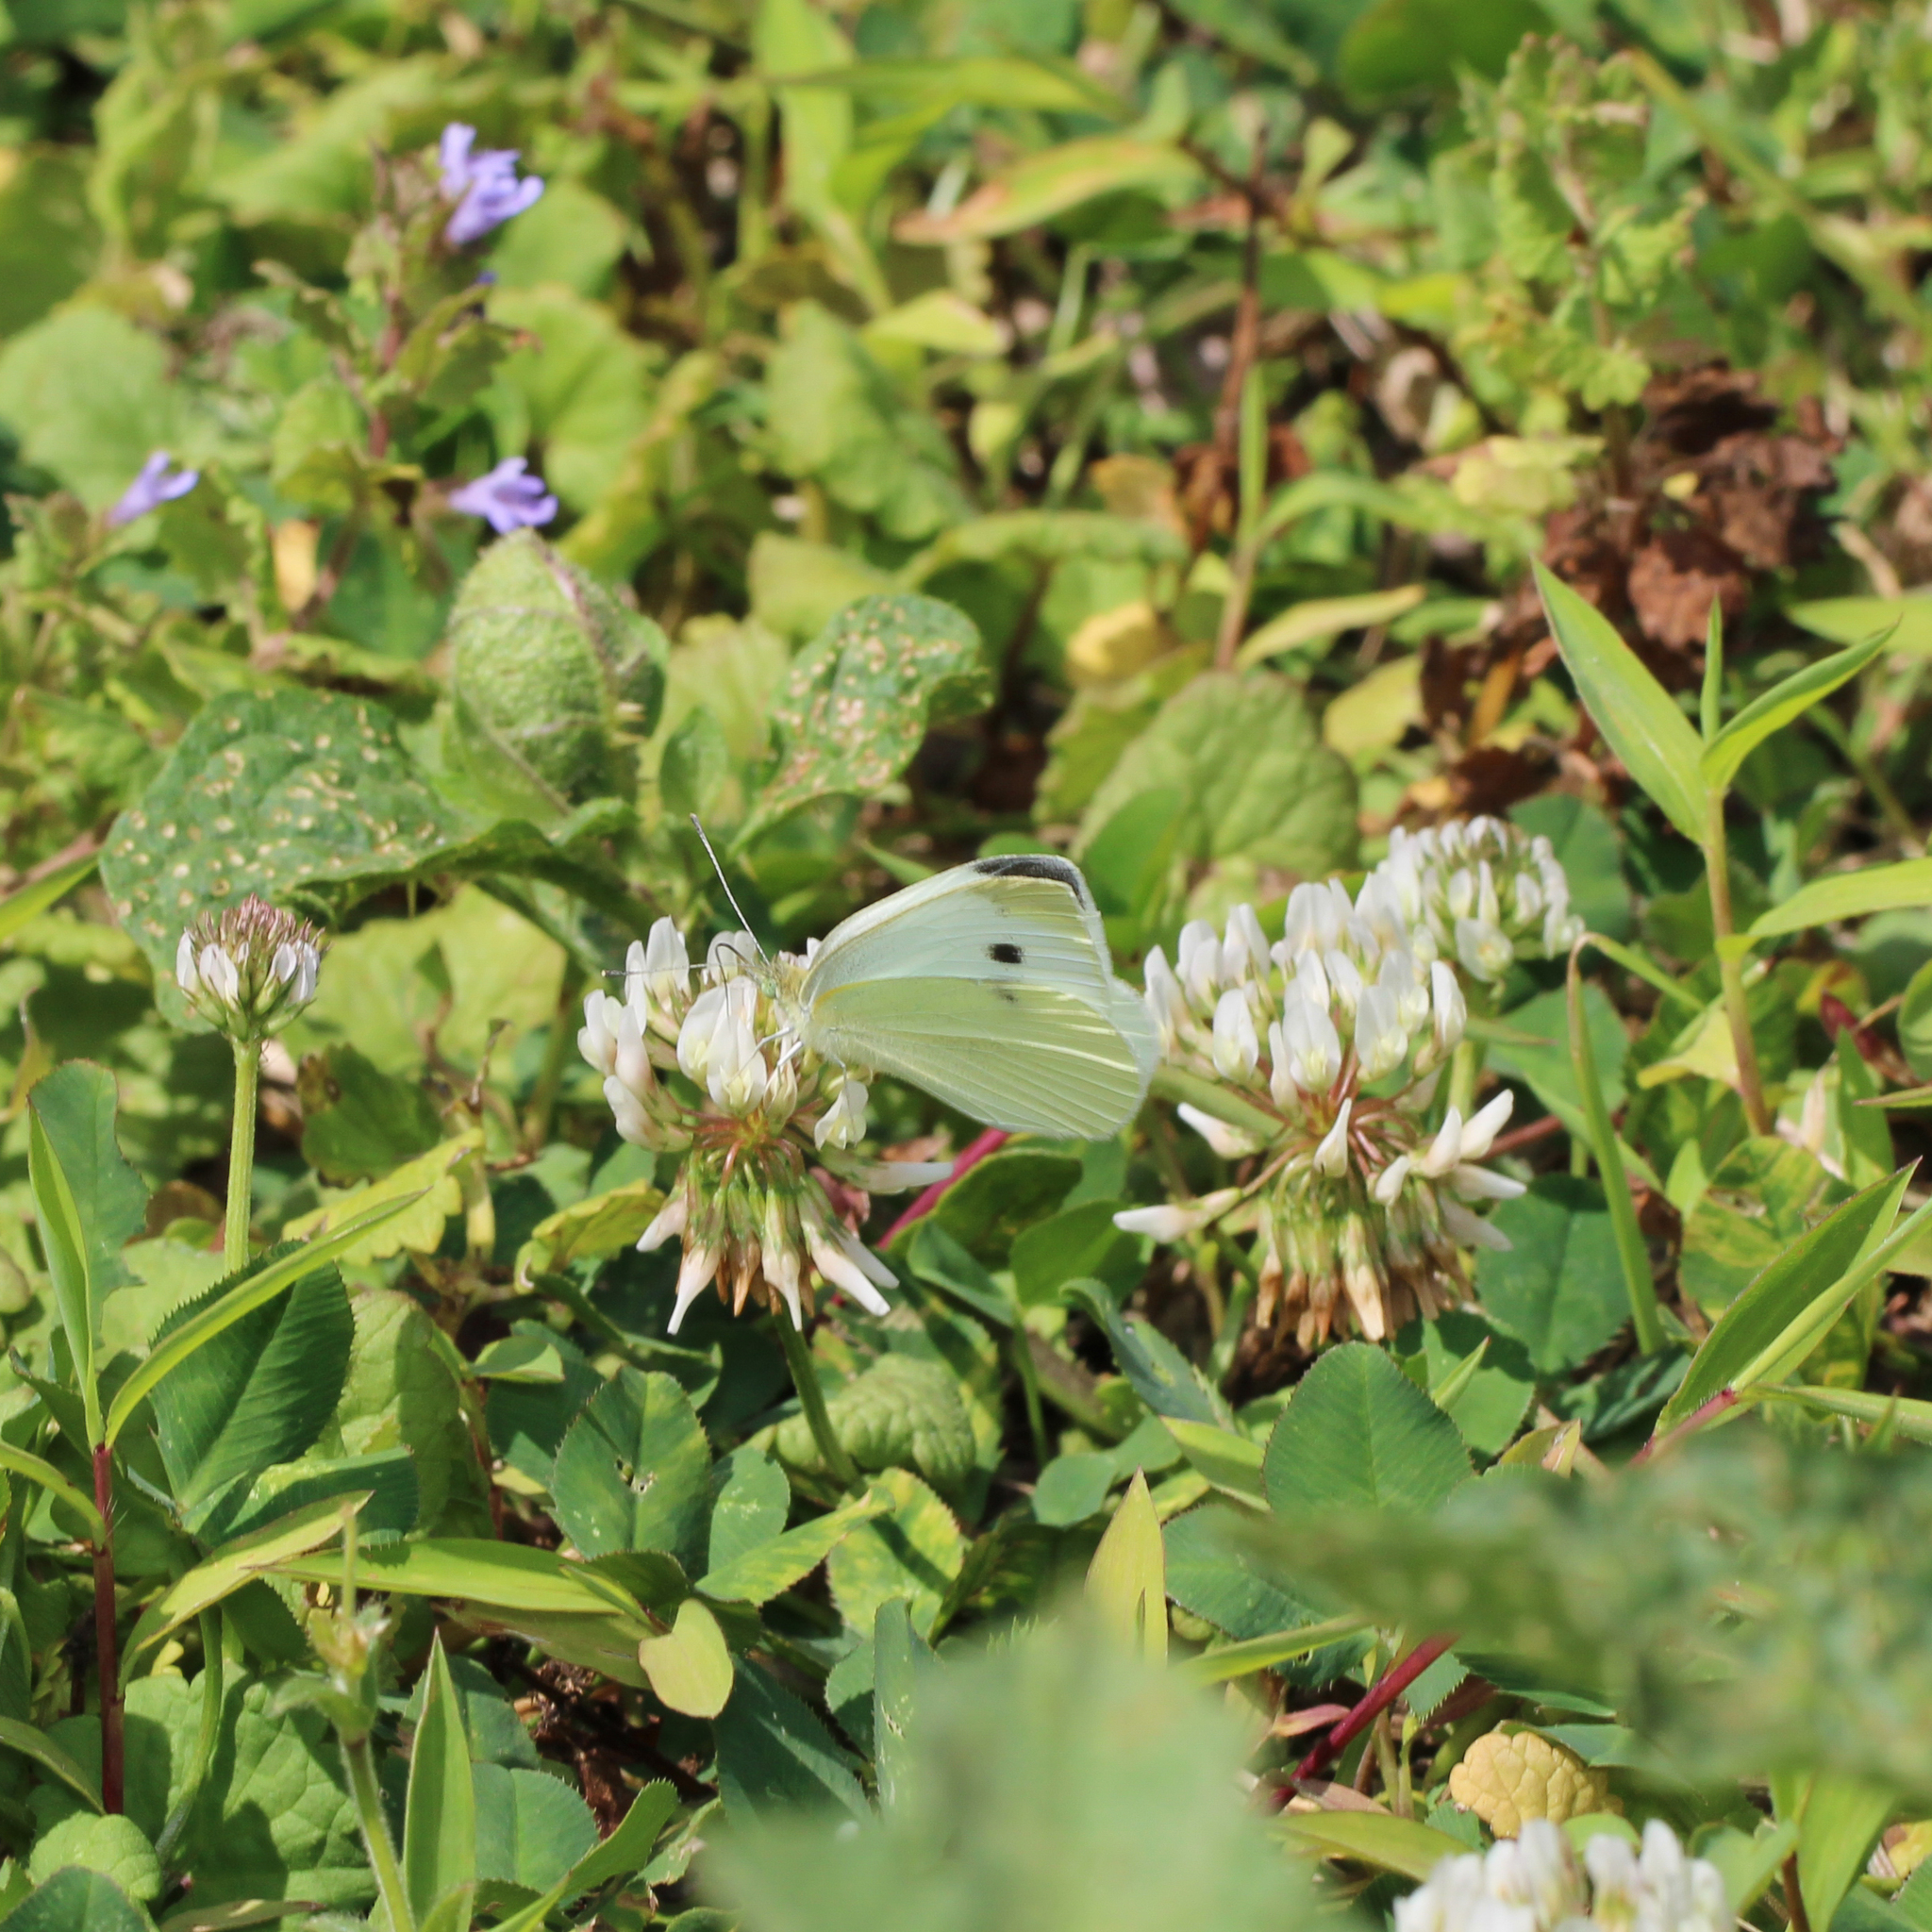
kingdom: Animalia
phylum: Arthropoda
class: Insecta
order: Lepidoptera
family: Pieridae
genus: Pieris
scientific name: Pieris rapae
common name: Small white
